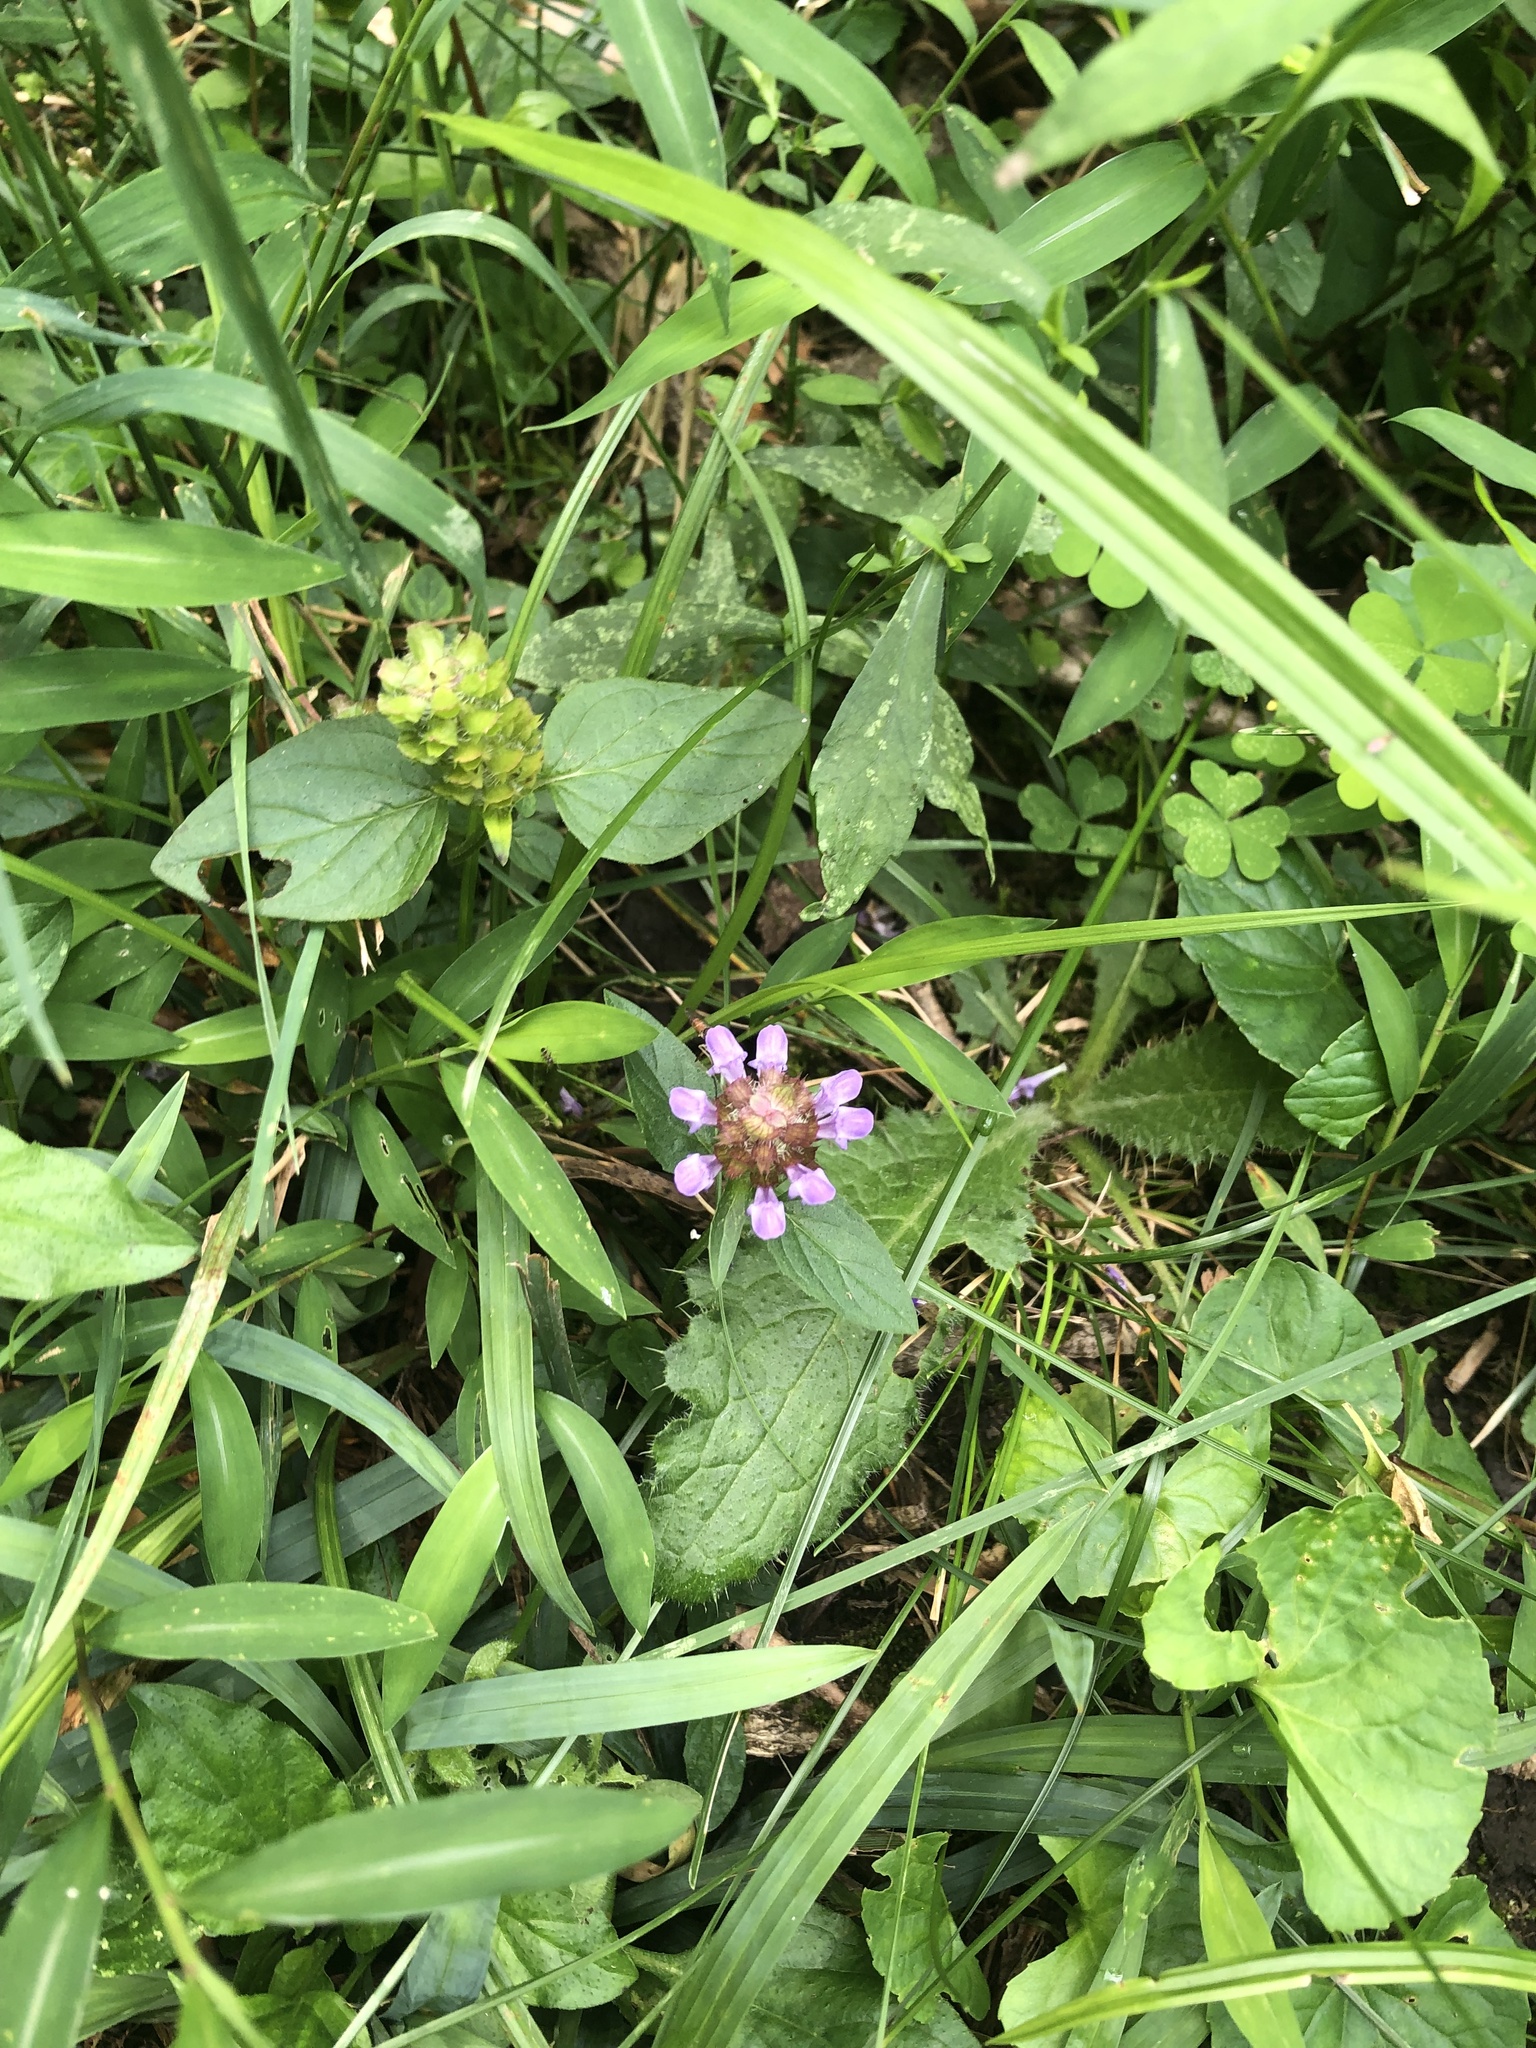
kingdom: Plantae
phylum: Tracheophyta
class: Magnoliopsida
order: Lamiales
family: Lamiaceae
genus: Prunella
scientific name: Prunella vulgaris
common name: Heal-all
